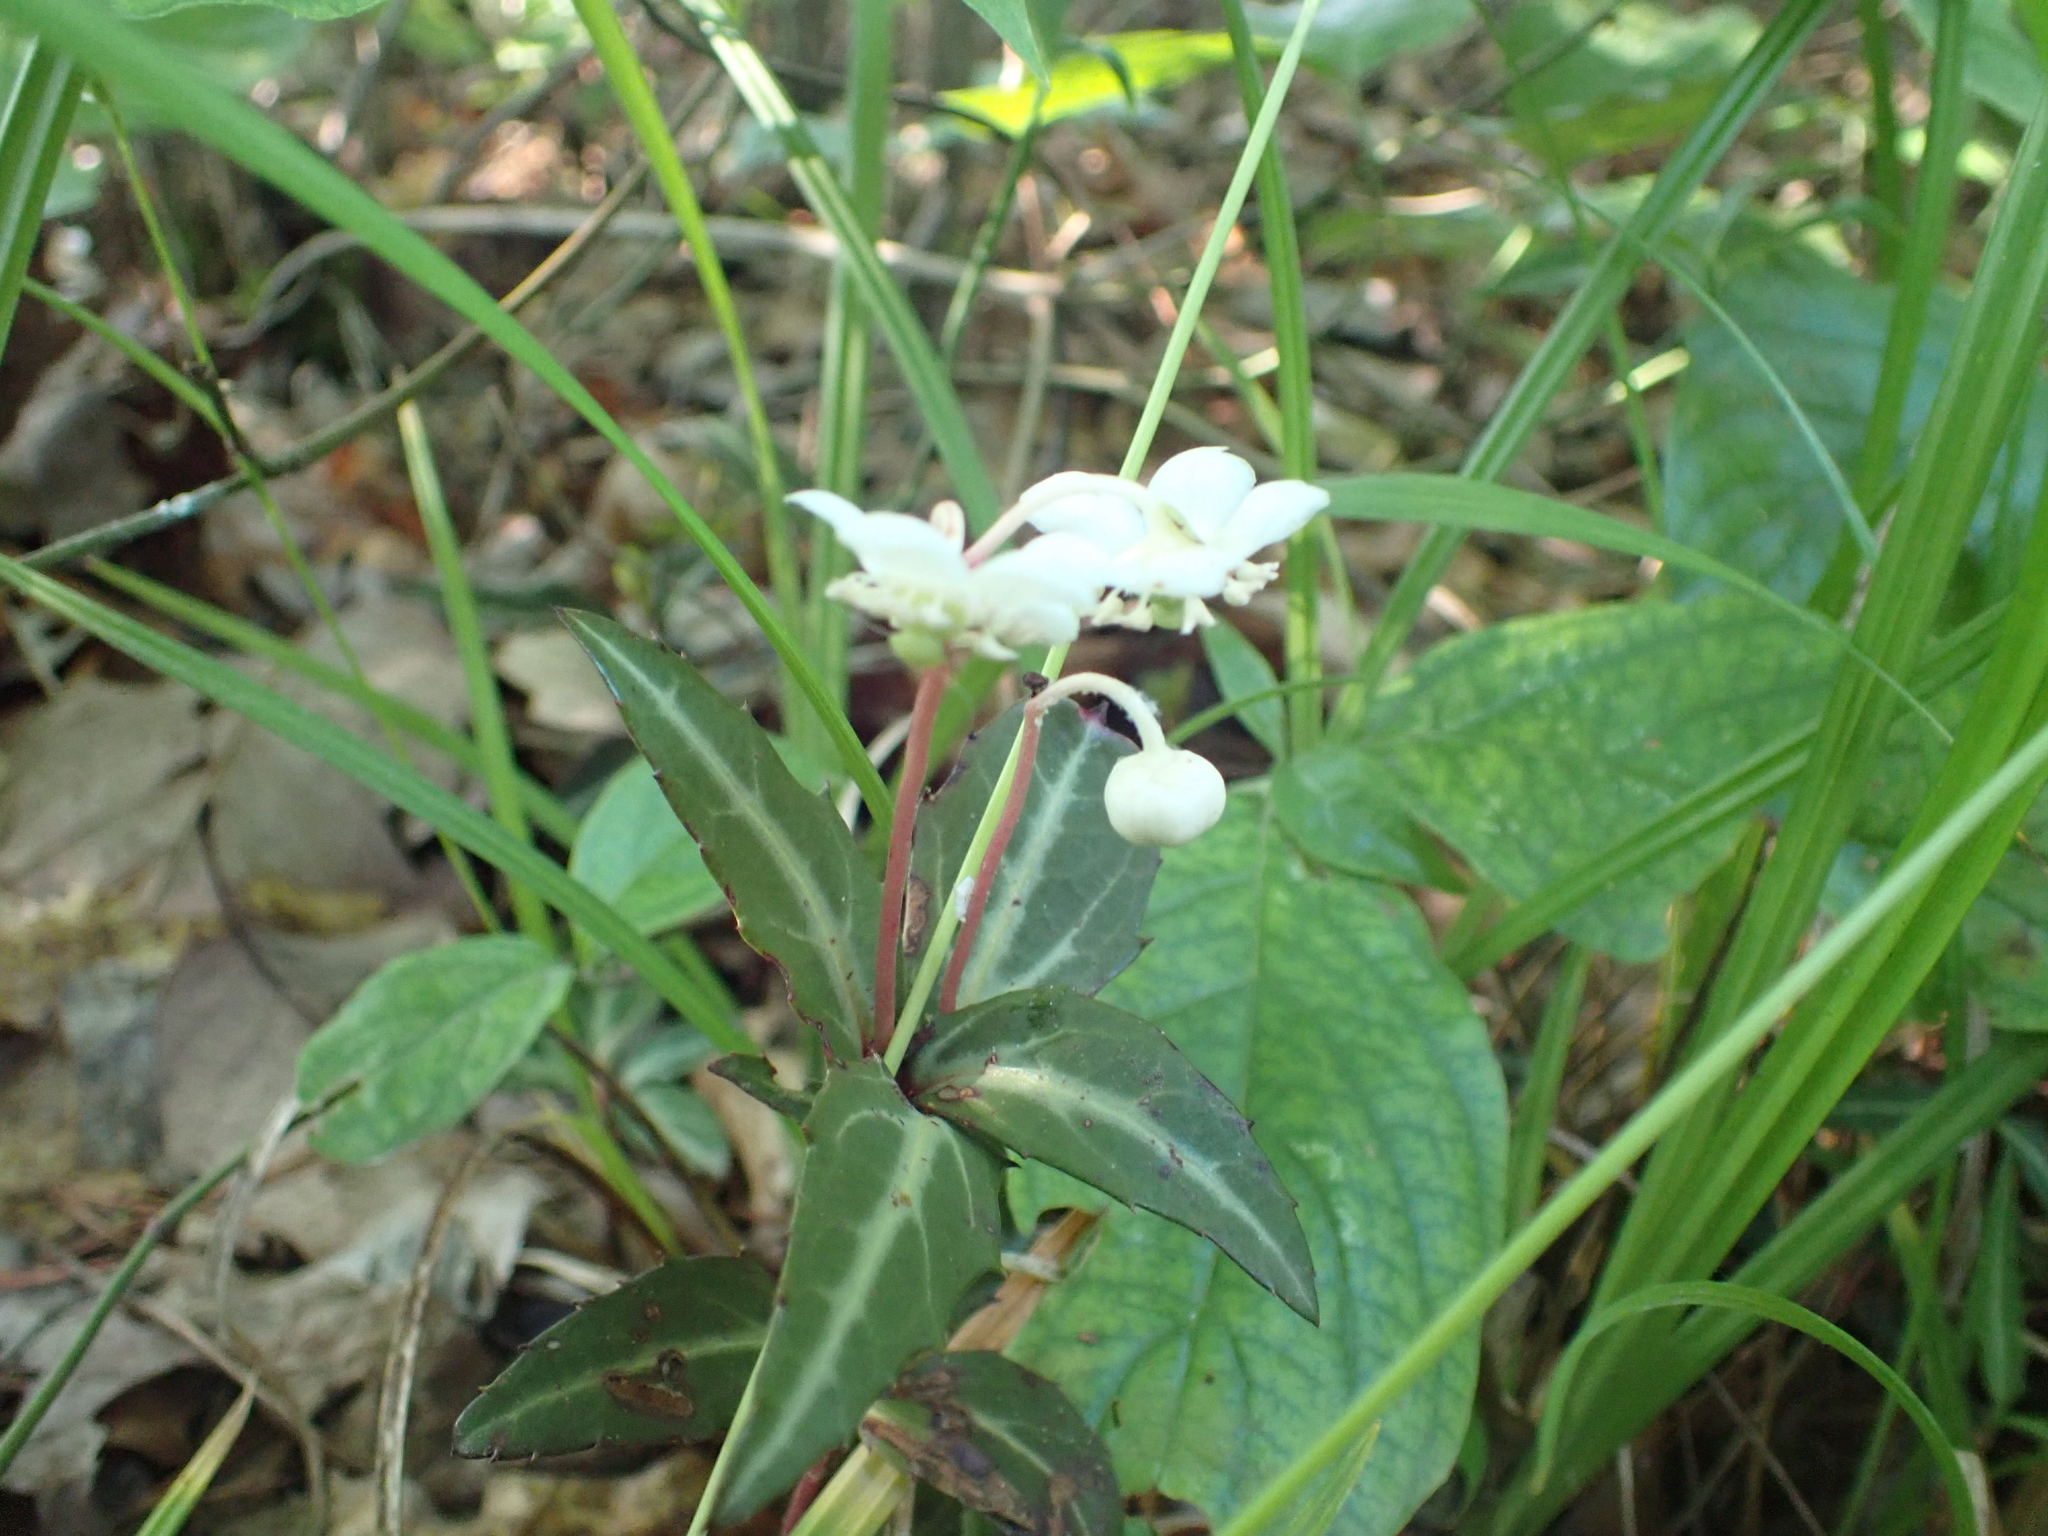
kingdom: Plantae
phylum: Tracheophyta
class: Magnoliopsida
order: Ericales
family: Ericaceae
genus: Chimaphila
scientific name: Chimaphila maculata
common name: Spotted pipsissewa
